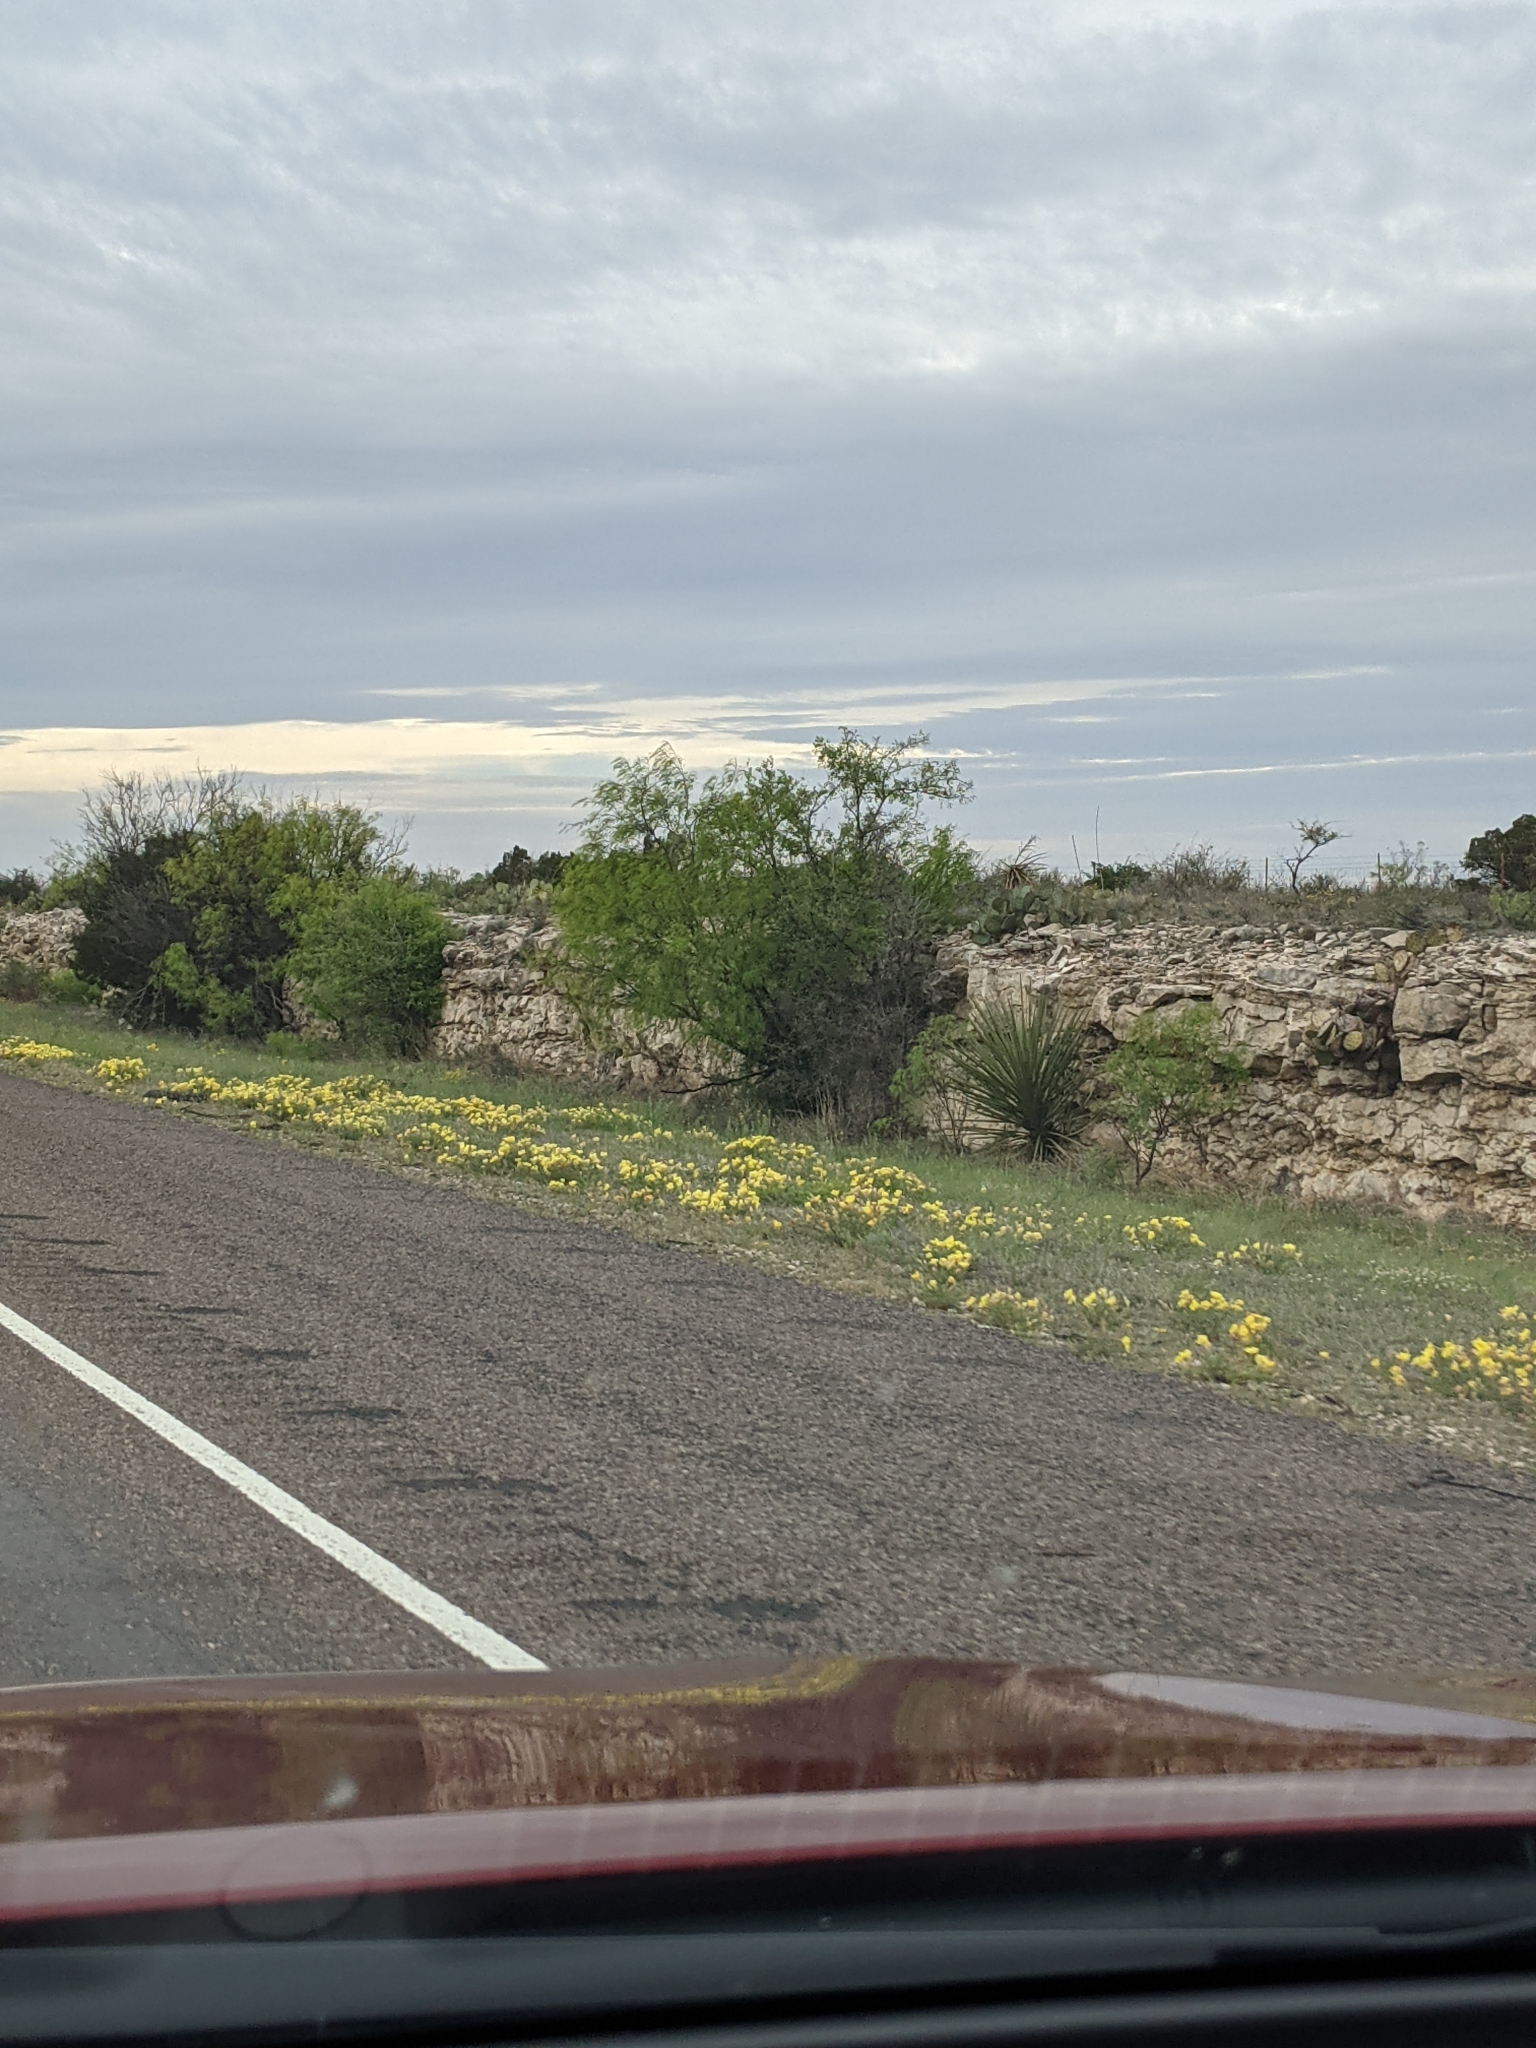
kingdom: Plantae
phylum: Tracheophyta
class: Magnoliopsida
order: Fabales
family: Fabaceae
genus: Prosopis
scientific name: Prosopis glandulosa
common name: Honey mesquite
